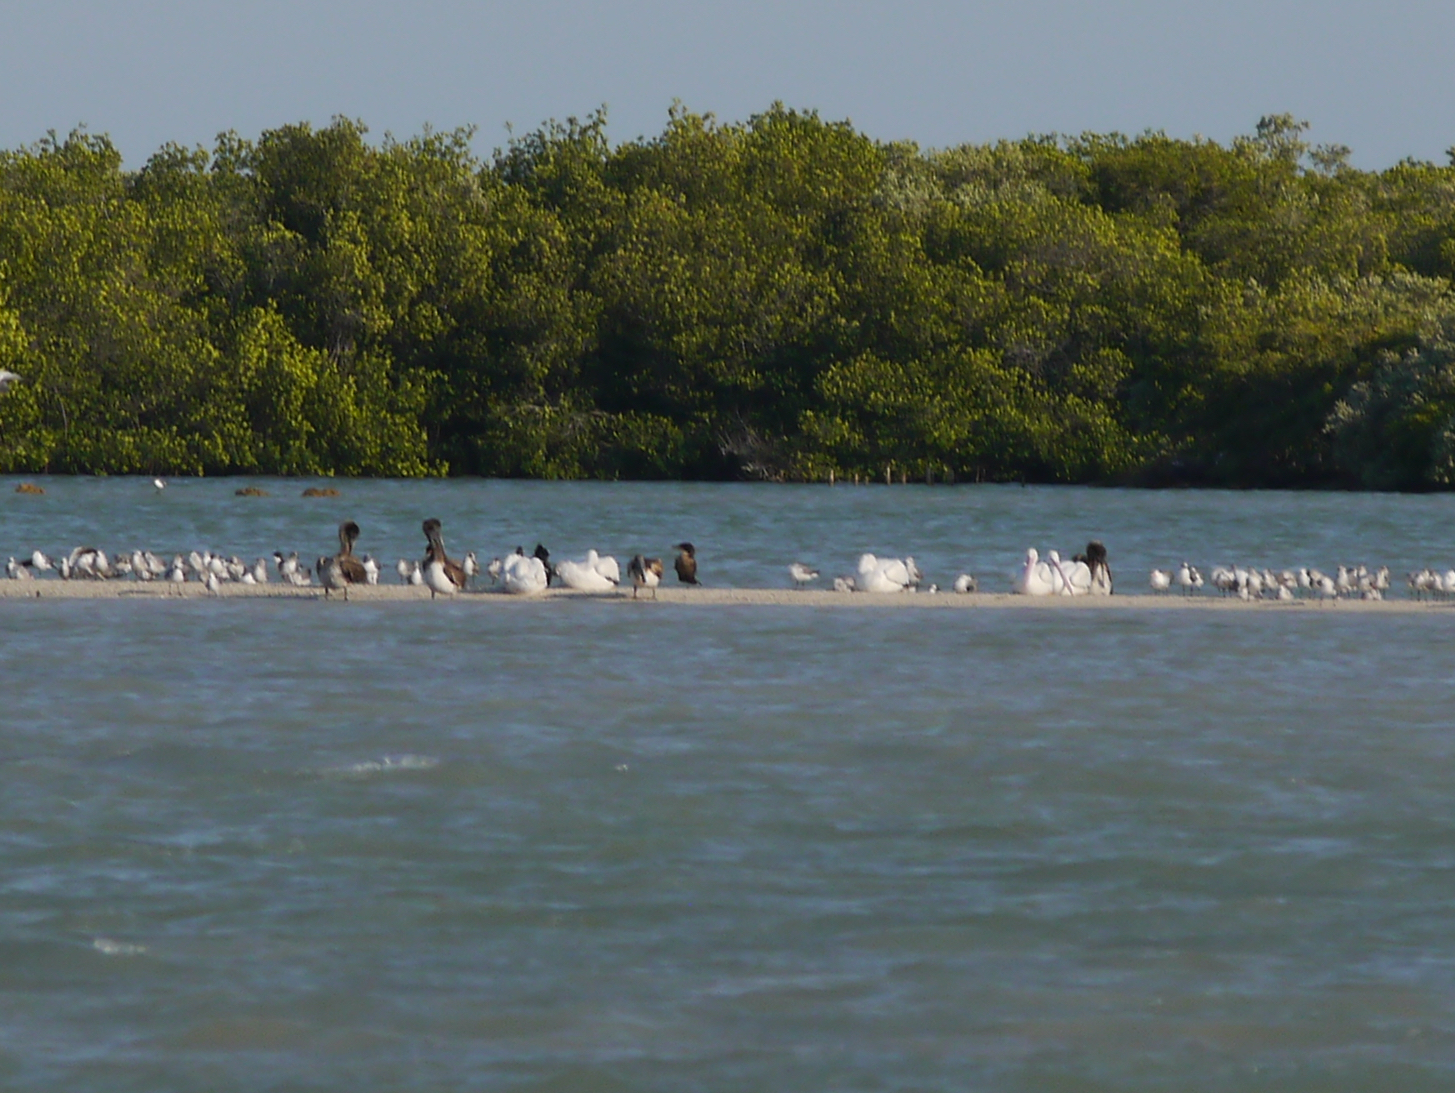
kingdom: Animalia
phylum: Chordata
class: Aves
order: Pelecaniformes
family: Pelecanidae
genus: Pelecanus
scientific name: Pelecanus erythrorhynchos
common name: American white pelican
